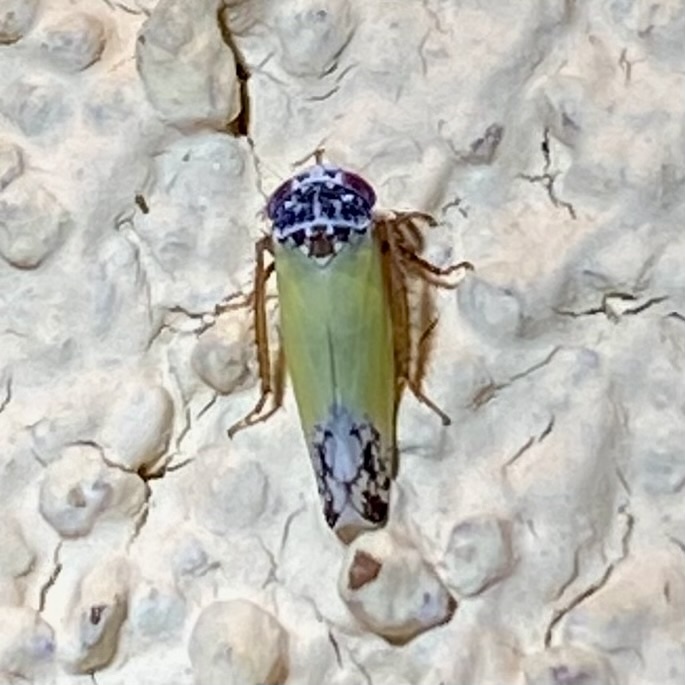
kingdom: Animalia
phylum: Arthropoda
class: Insecta
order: Hemiptera
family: Cicadellidae
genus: Norvellina
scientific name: Norvellina bicolorata
